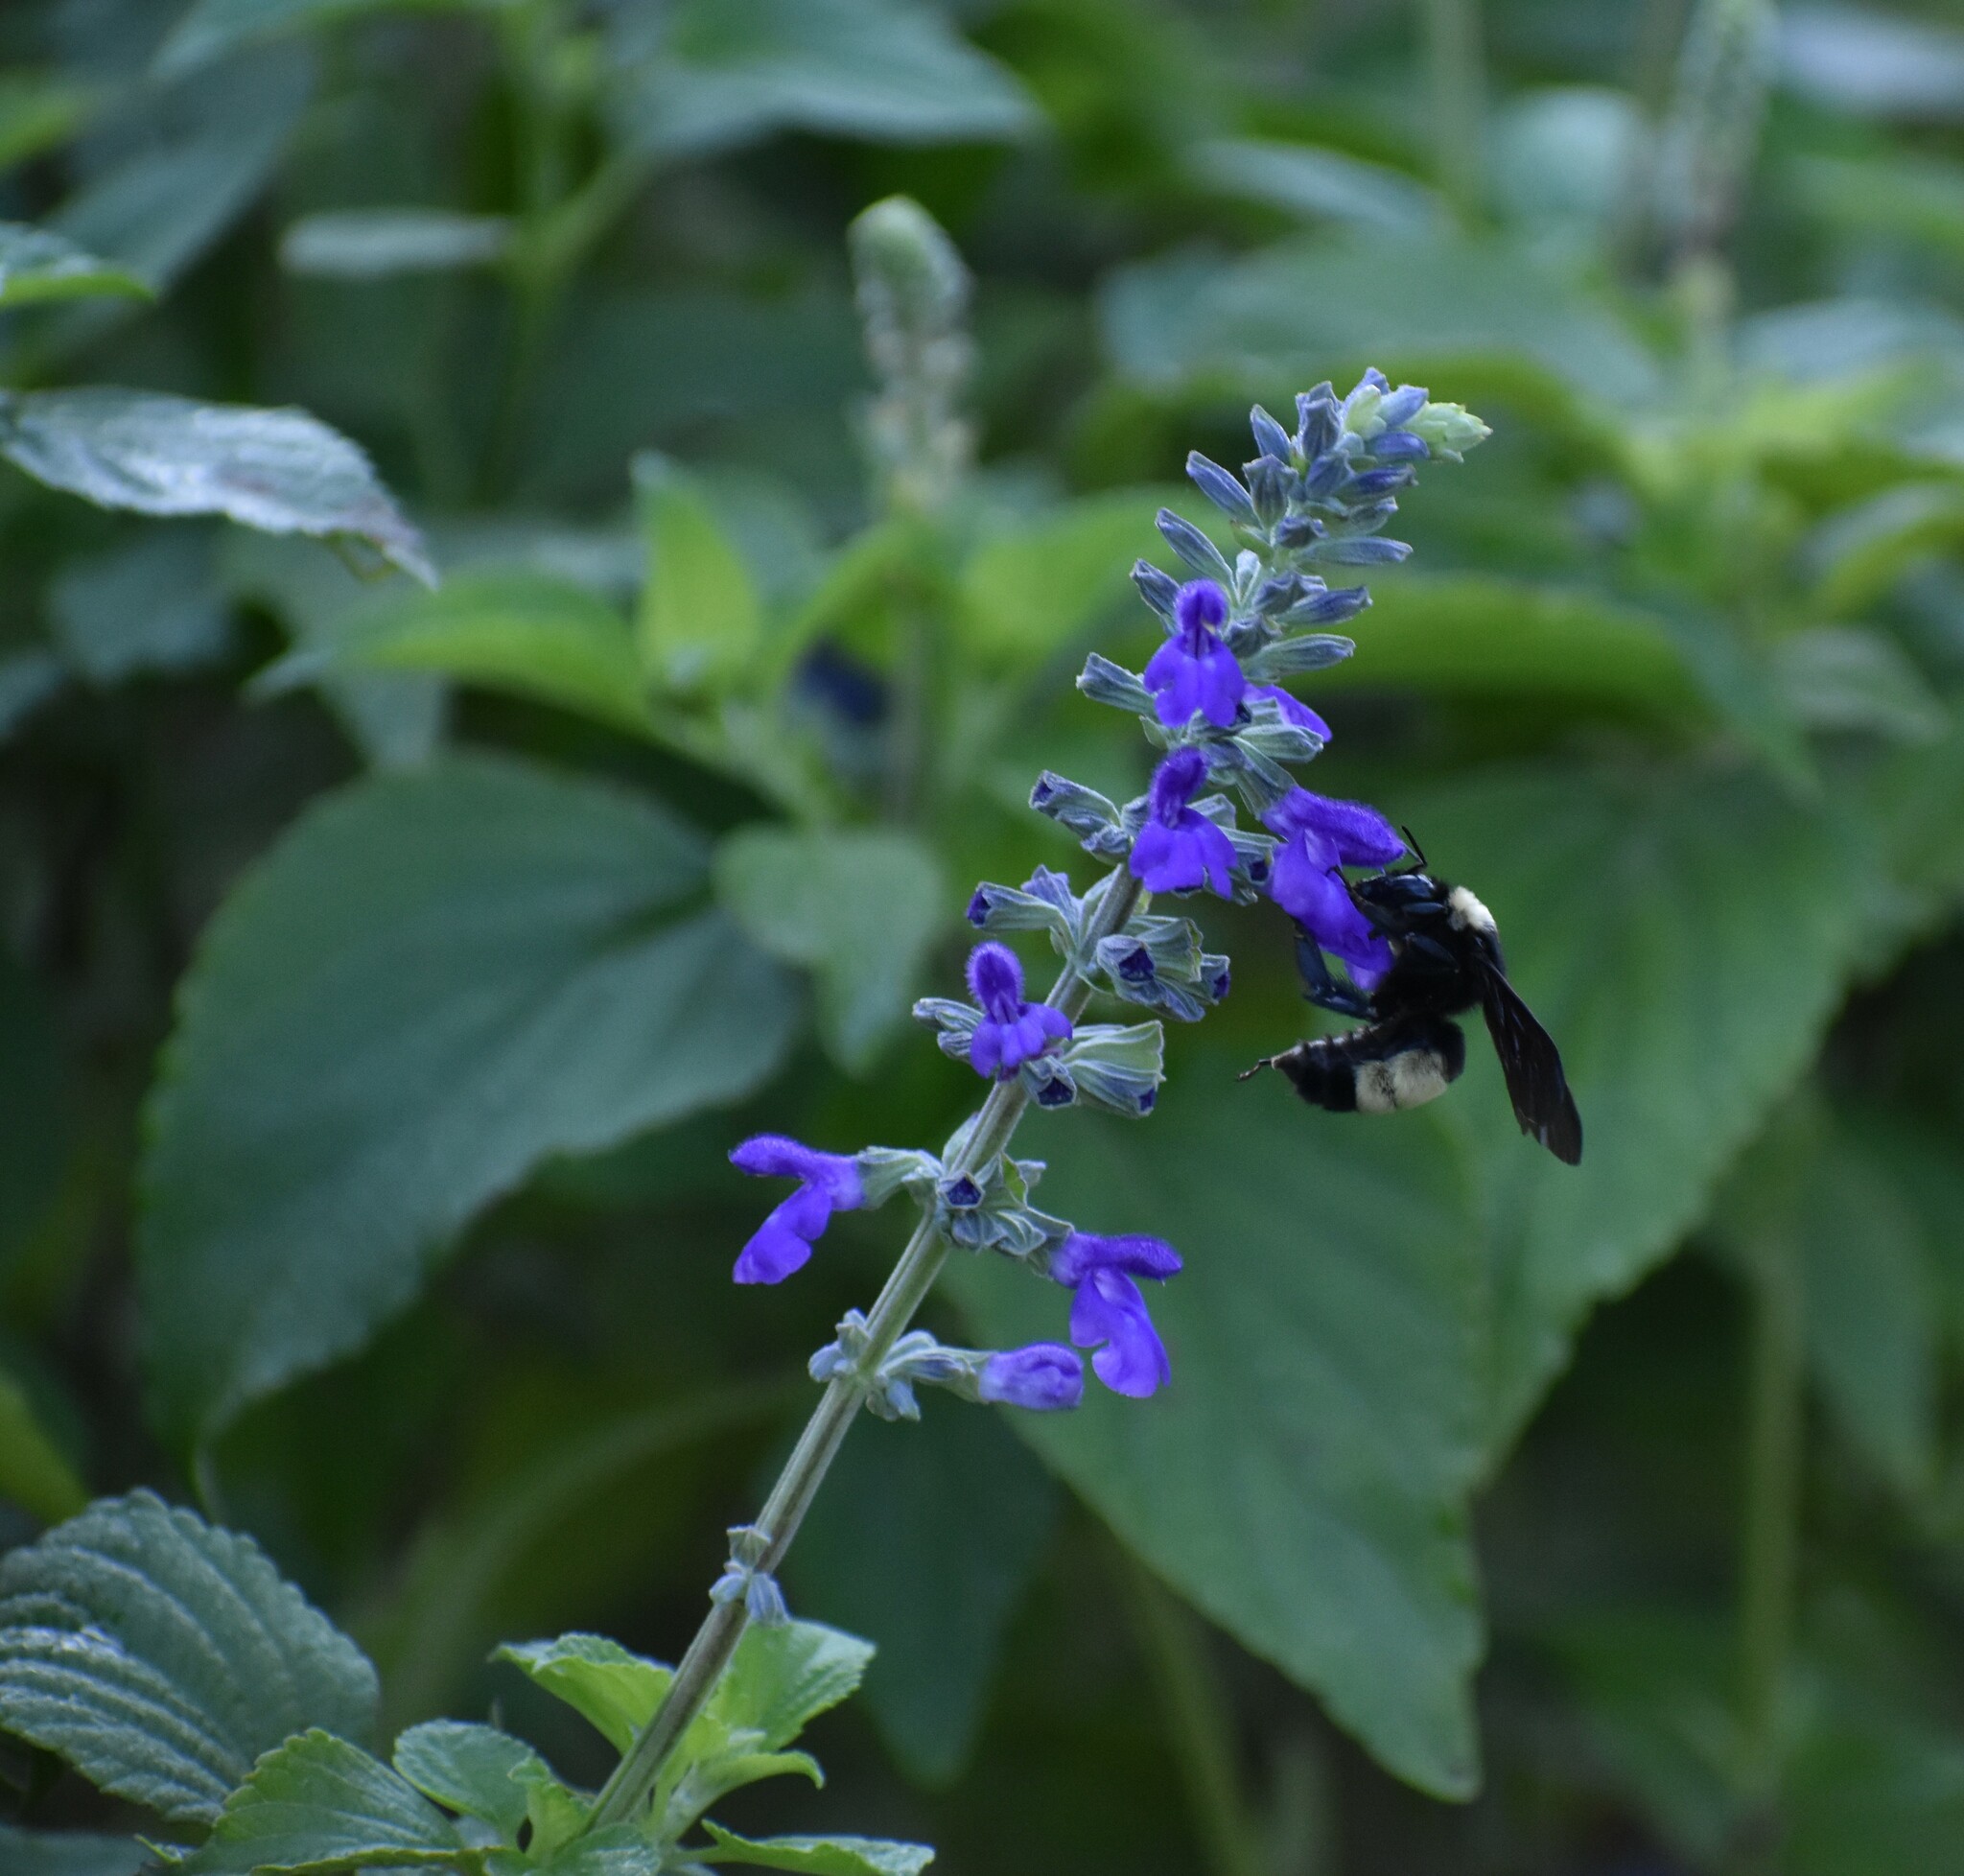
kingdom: Animalia
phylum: Arthropoda
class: Insecta
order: Hymenoptera
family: Apidae
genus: Bombus
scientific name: Bombus pensylvanicus
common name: Bumble bee
